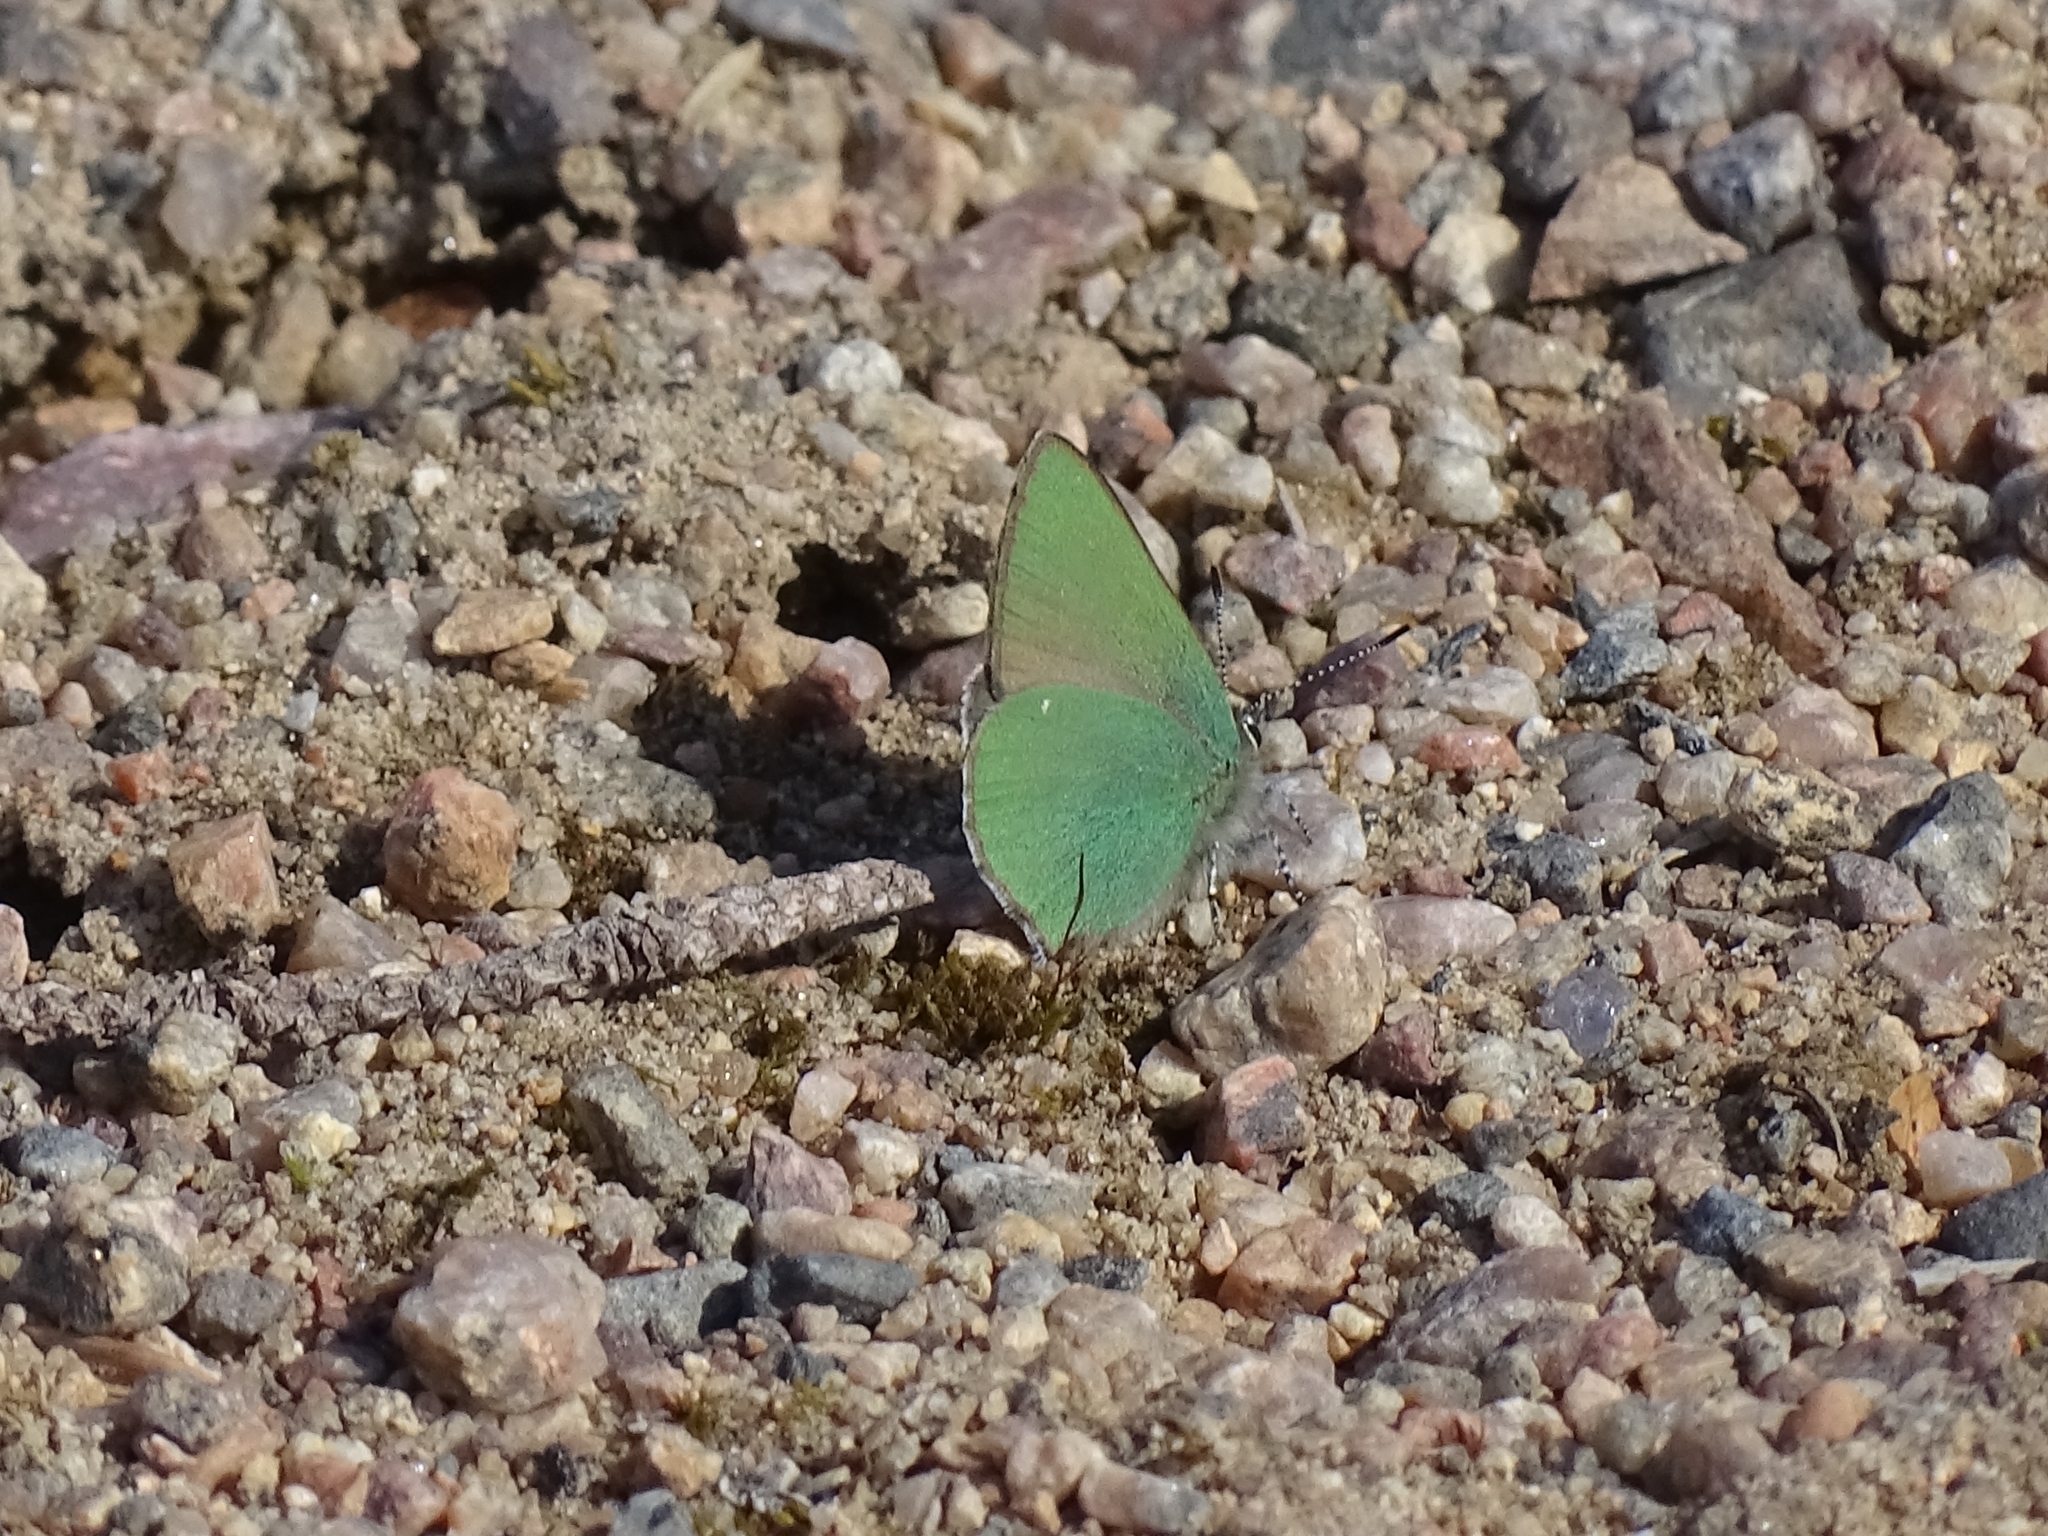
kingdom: Animalia
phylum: Arthropoda
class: Insecta
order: Lepidoptera
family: Lycaenidae
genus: Callophrys
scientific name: Callophrys rubi
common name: Green hairstreak
